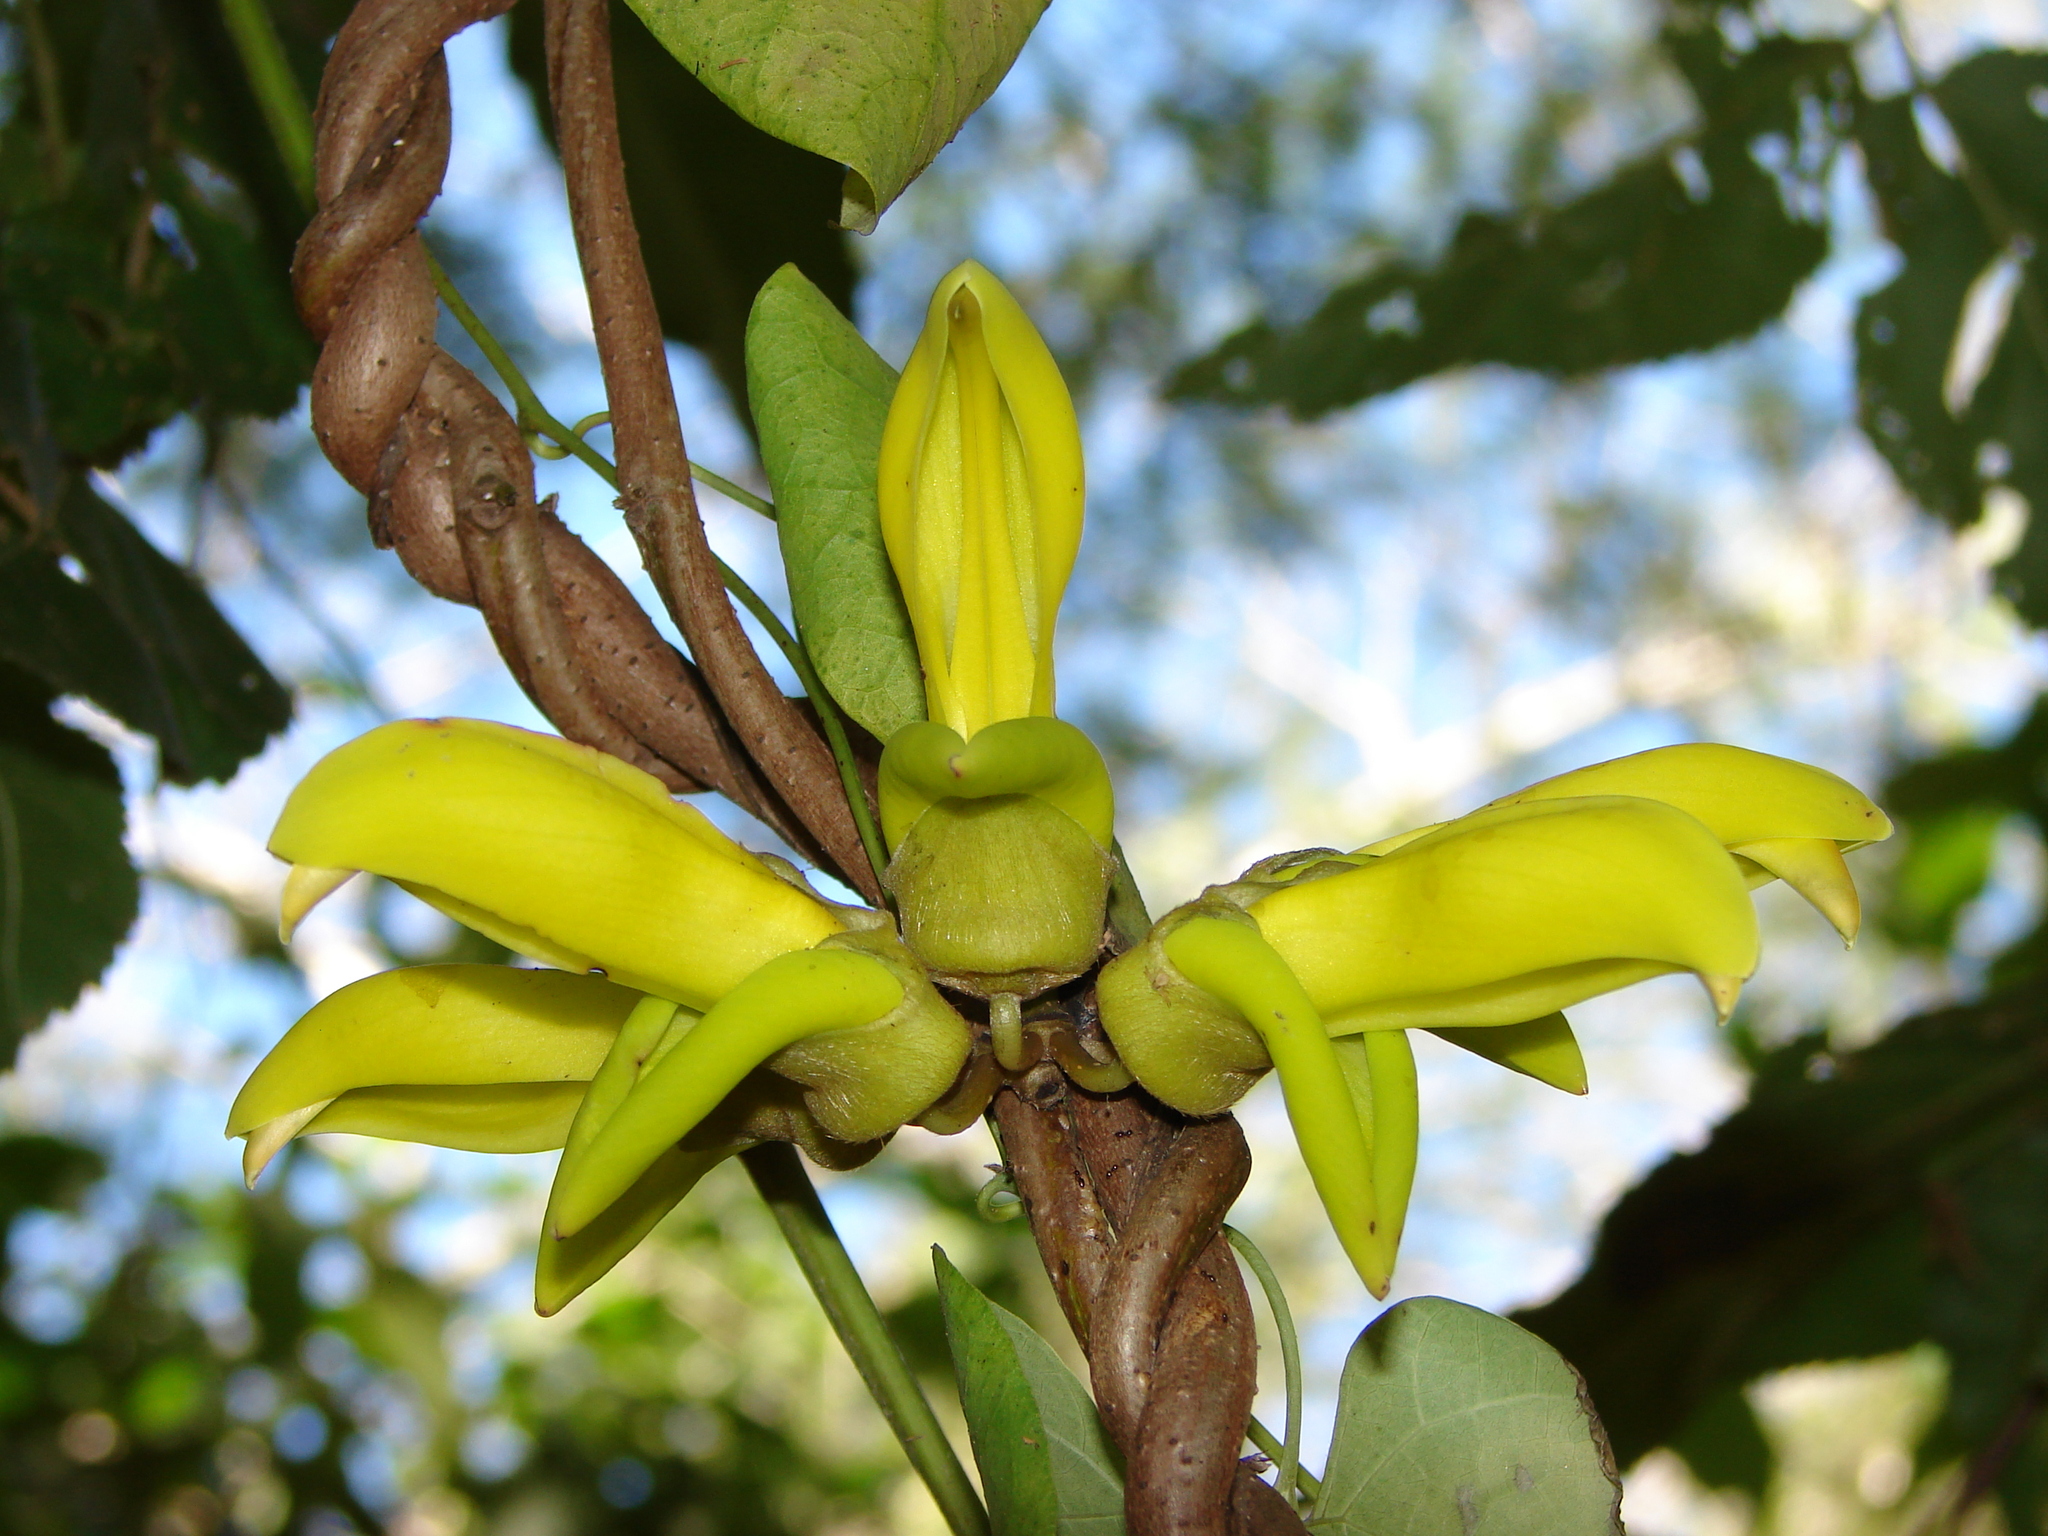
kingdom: Plantae
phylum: Tracheophyta
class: Magnoliopsida
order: Fabales
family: Fabaceae
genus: Mucuna
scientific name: Mucuna
